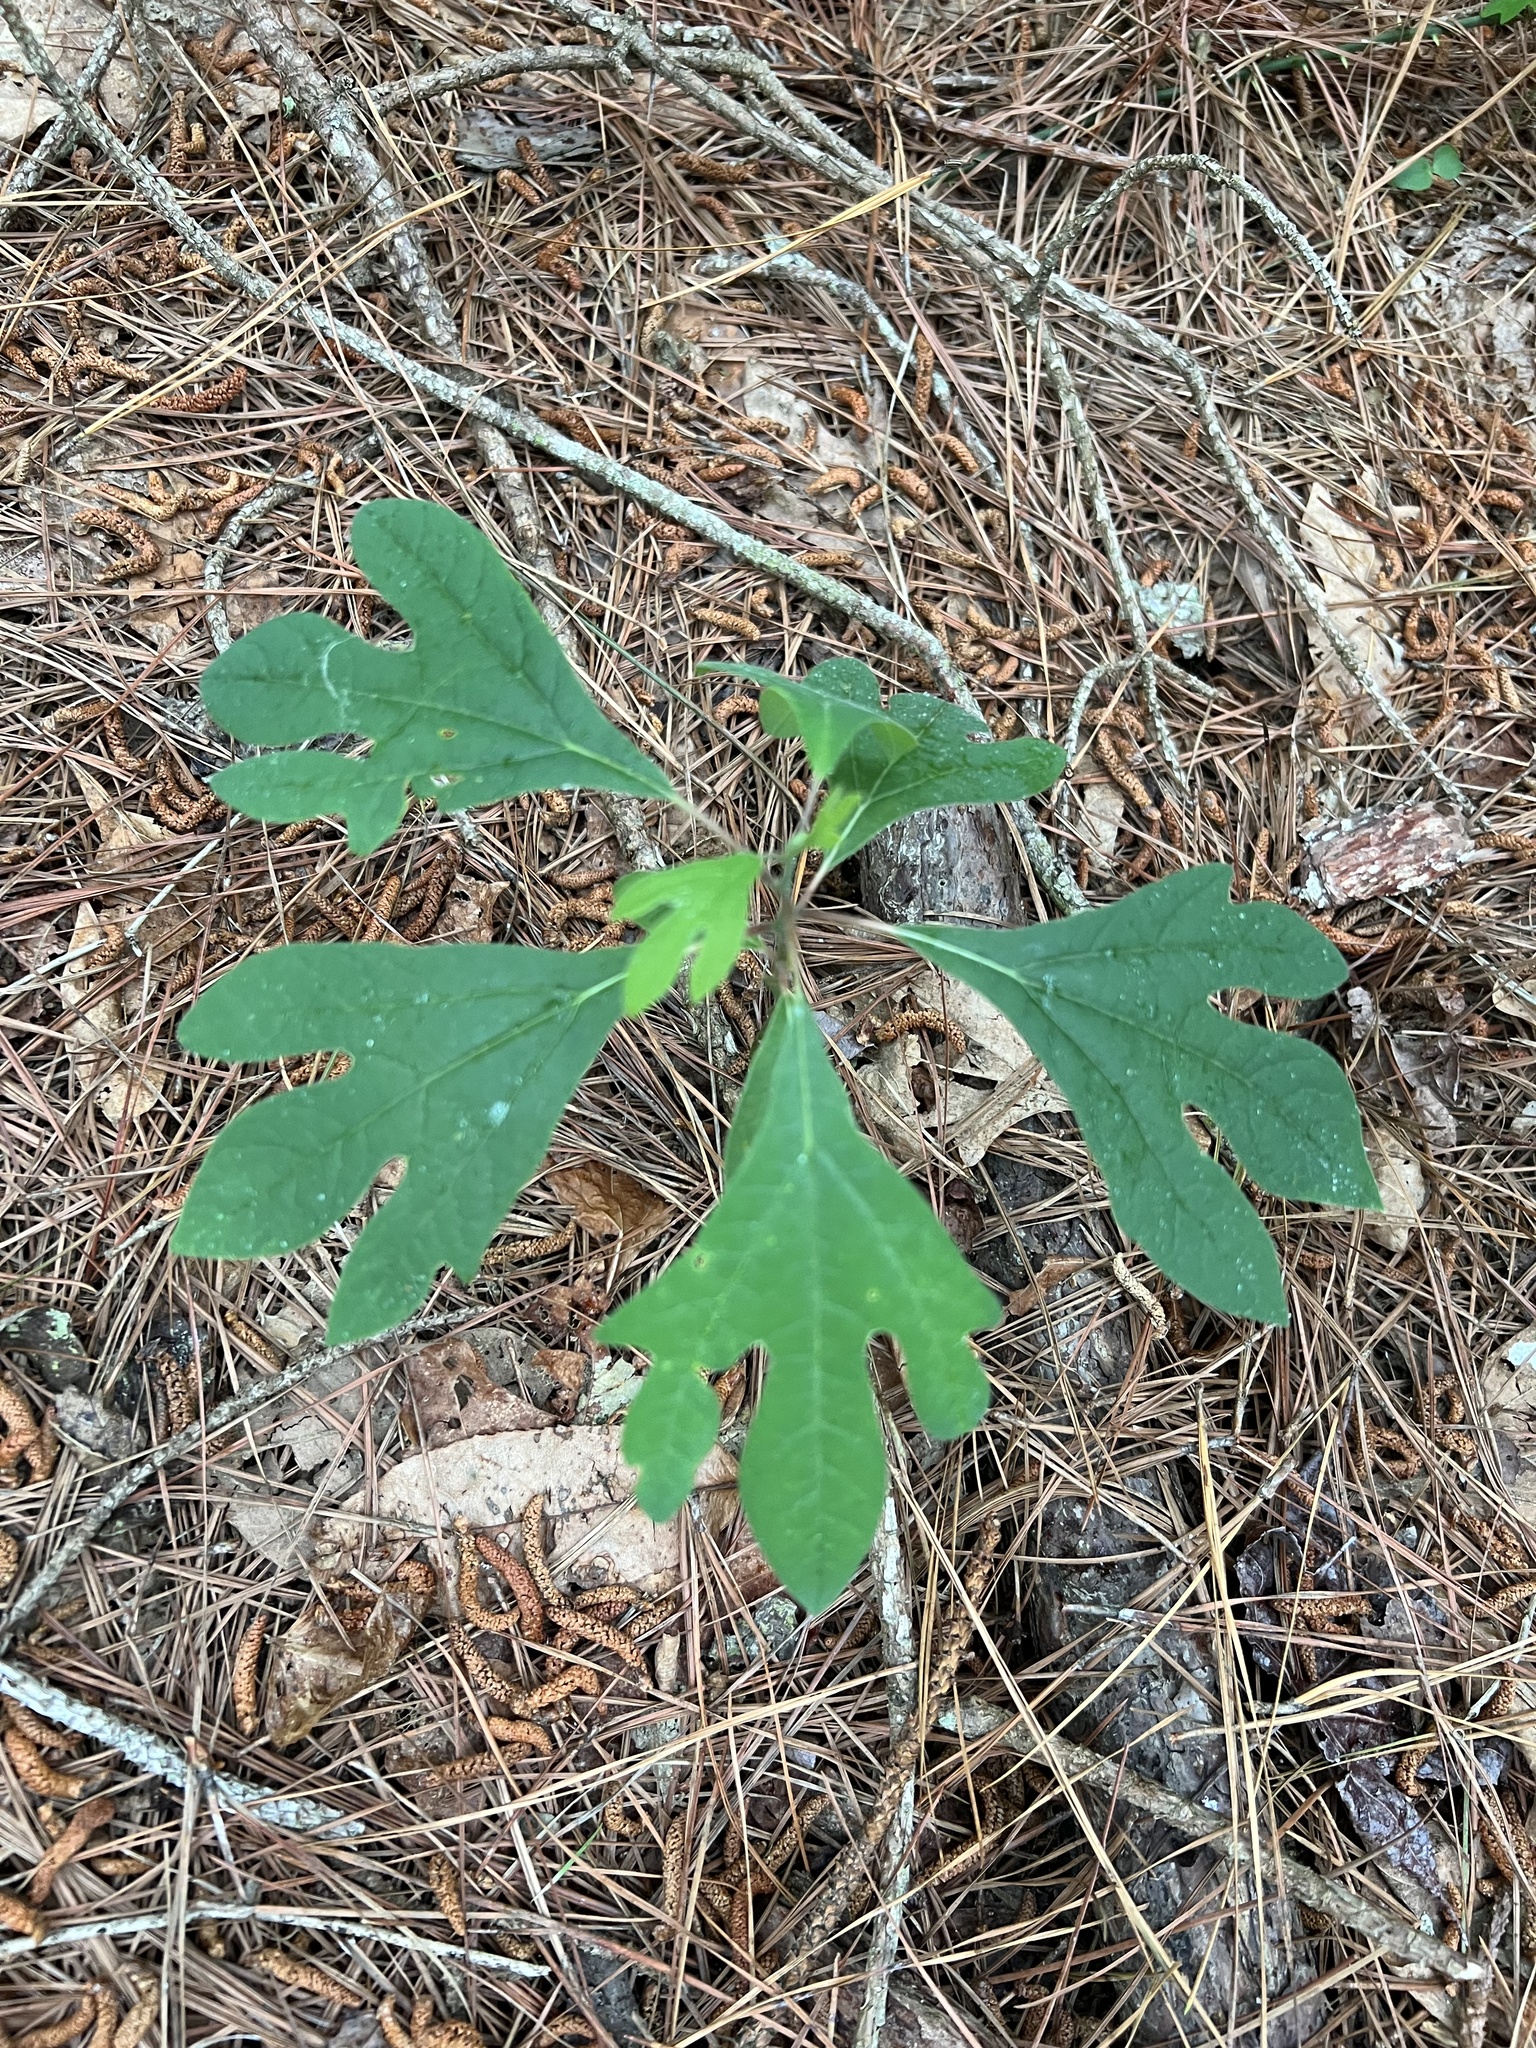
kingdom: Plantae
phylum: Tracheophyta
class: Magnoliopsida
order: Laurales
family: Lauraceae
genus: Sassafras
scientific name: Sassafras albidum
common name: Sassafras
